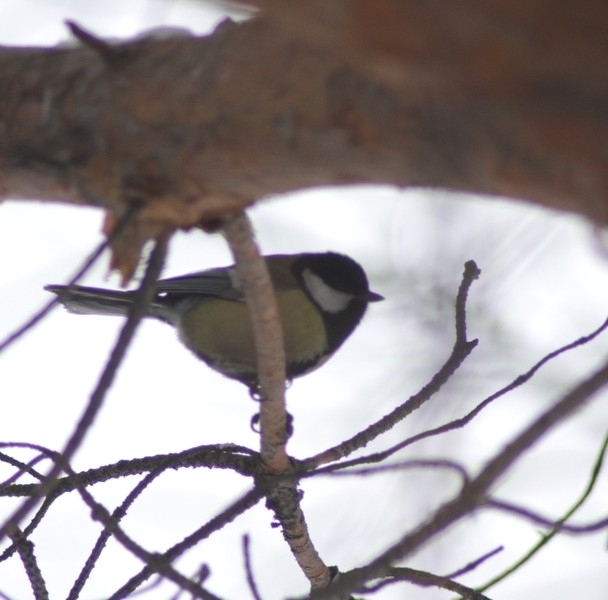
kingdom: Animalia
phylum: Chordata
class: Aves
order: Passeriformes
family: Paridae
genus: Parus
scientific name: Parus major
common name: Great tit
